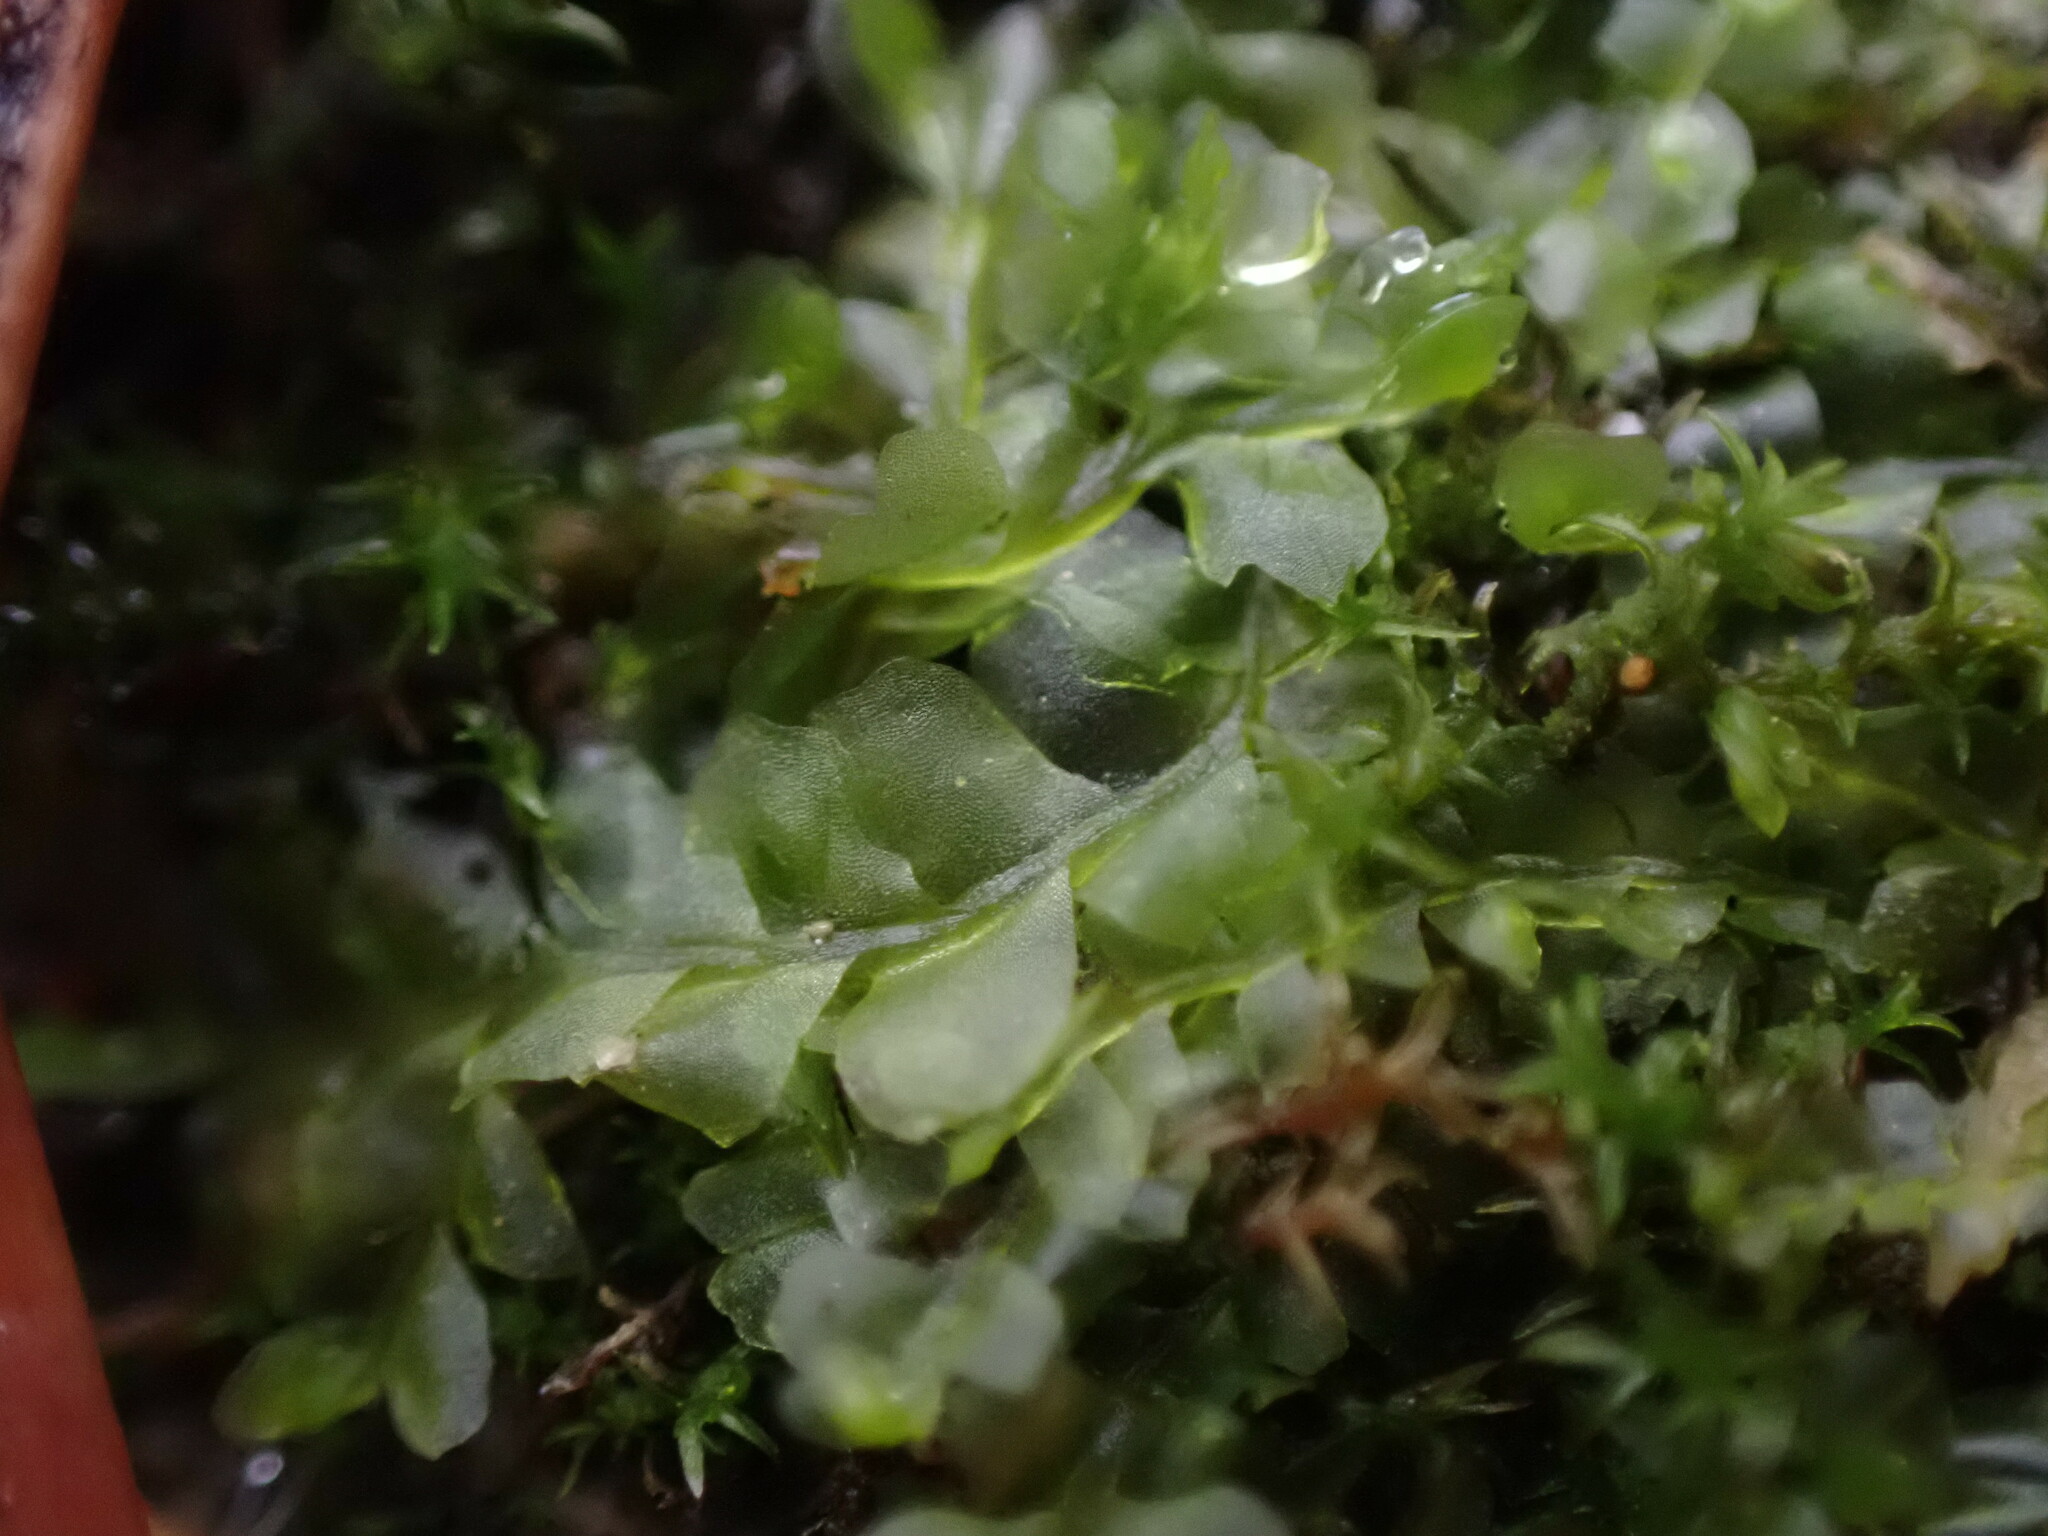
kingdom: Plantae
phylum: Marchantiophyta
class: Jungermanniopsida
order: Jungermanniales
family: Lophocoleaceae
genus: Chiloscyphus
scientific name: Chiloscyphus polyanthos
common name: Square-leaved crestwort
